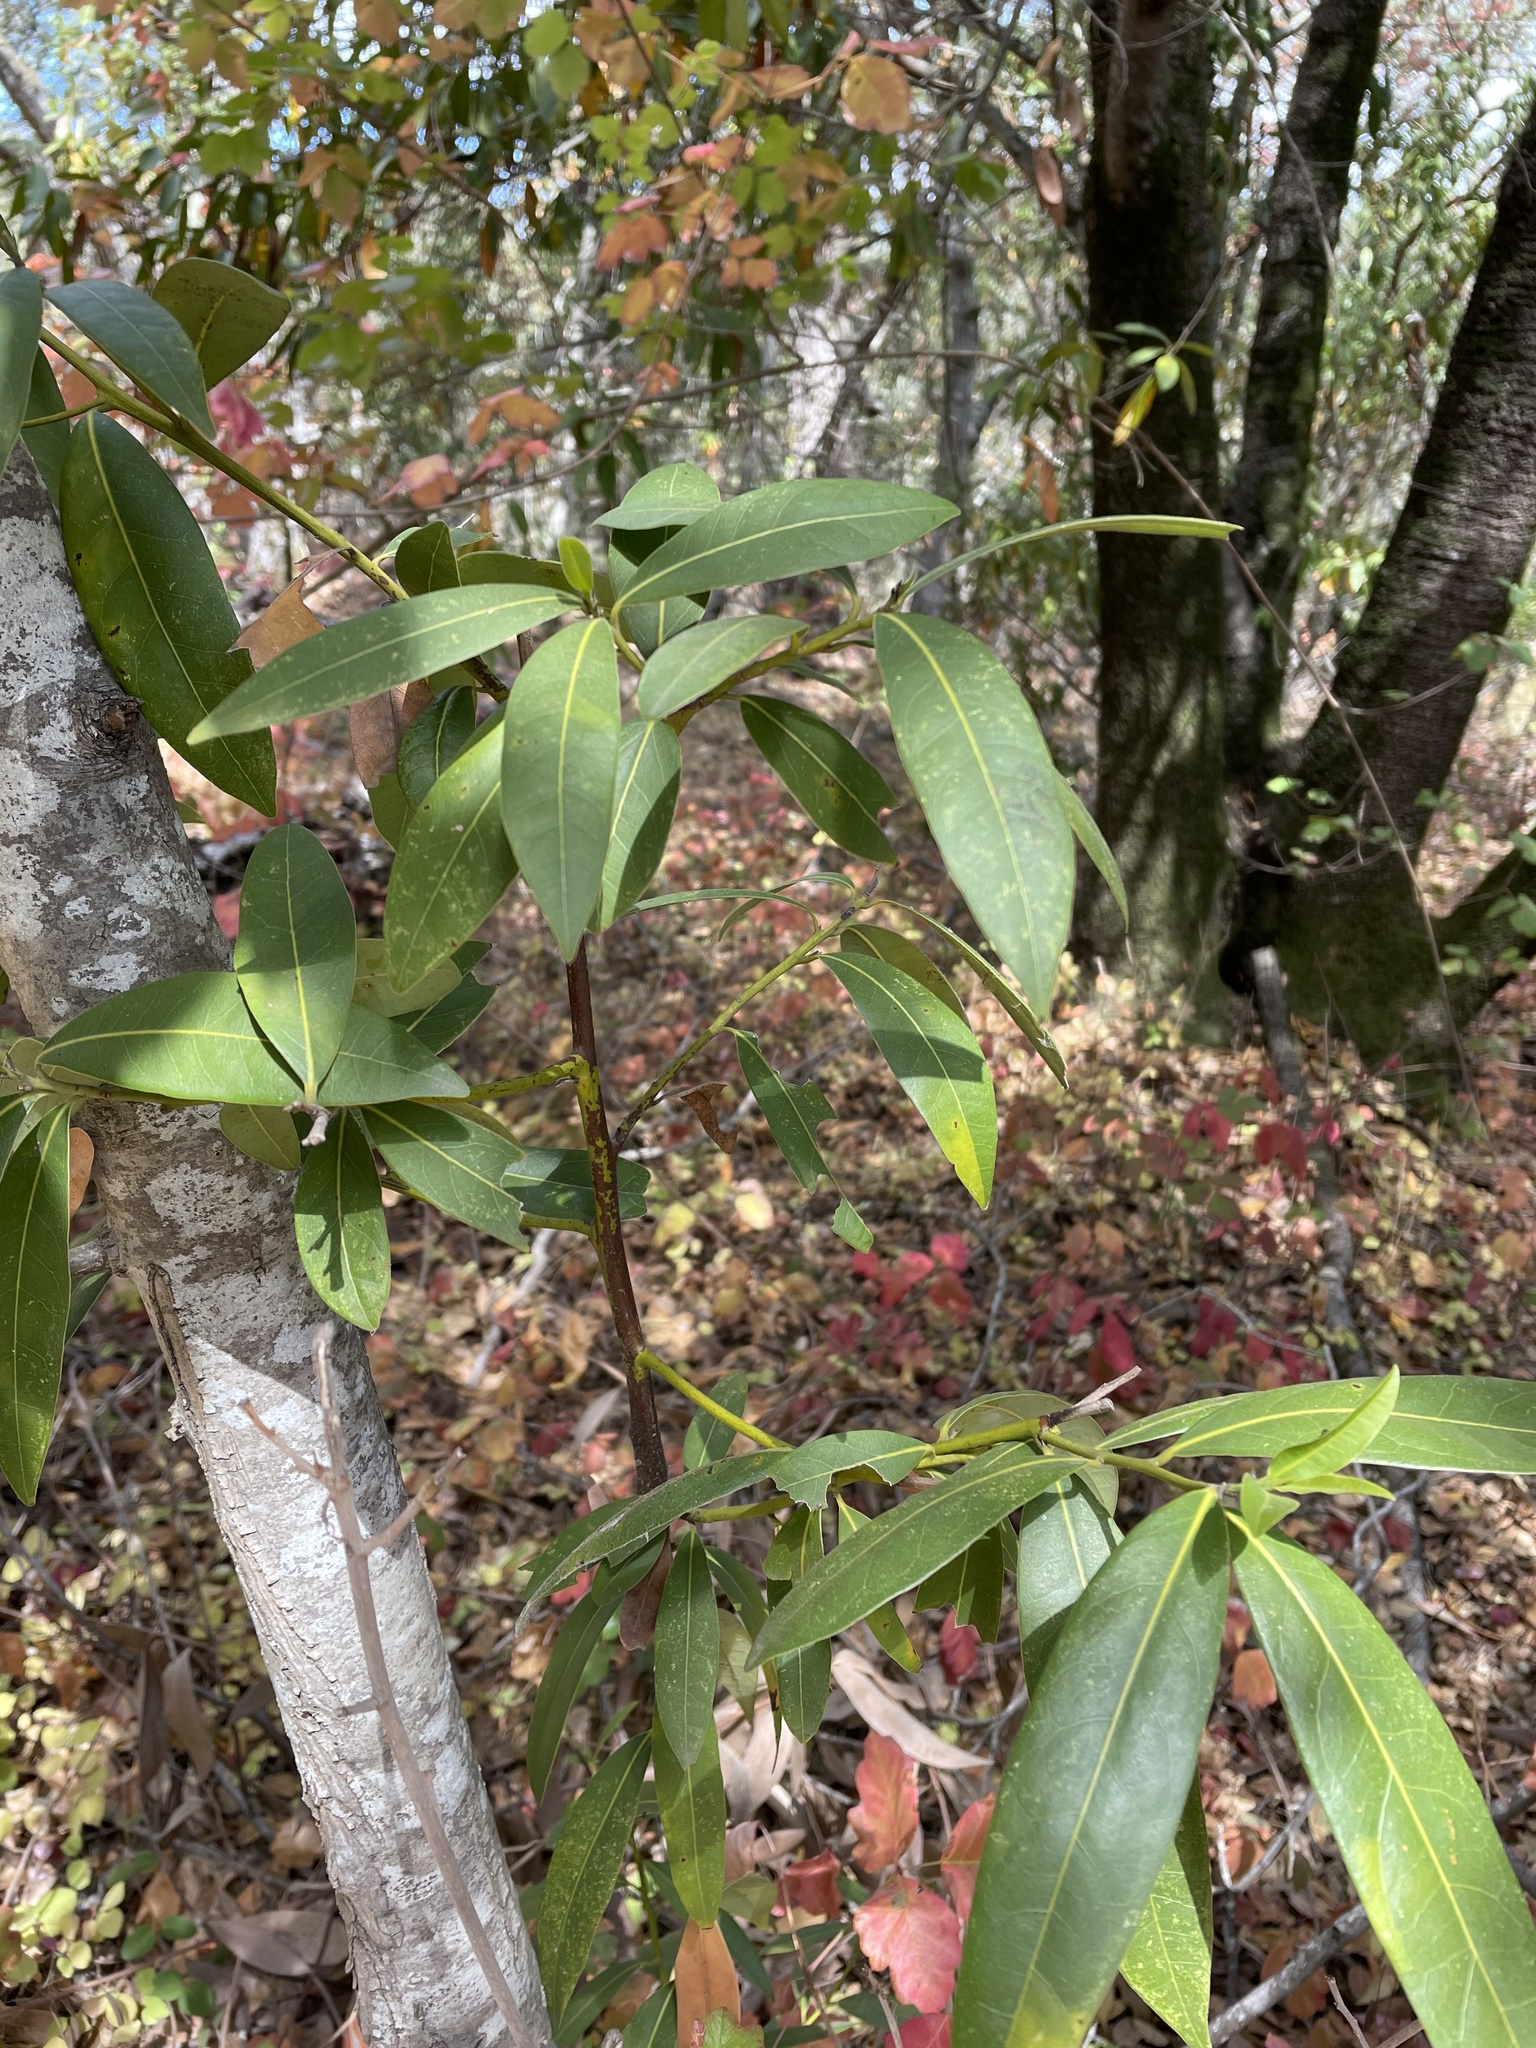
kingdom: Plantae
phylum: Tracheophyta
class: Magnoliopsida
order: Laurales
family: Lauraceae
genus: Umbellularia
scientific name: Umbellularia californica
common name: California bay
